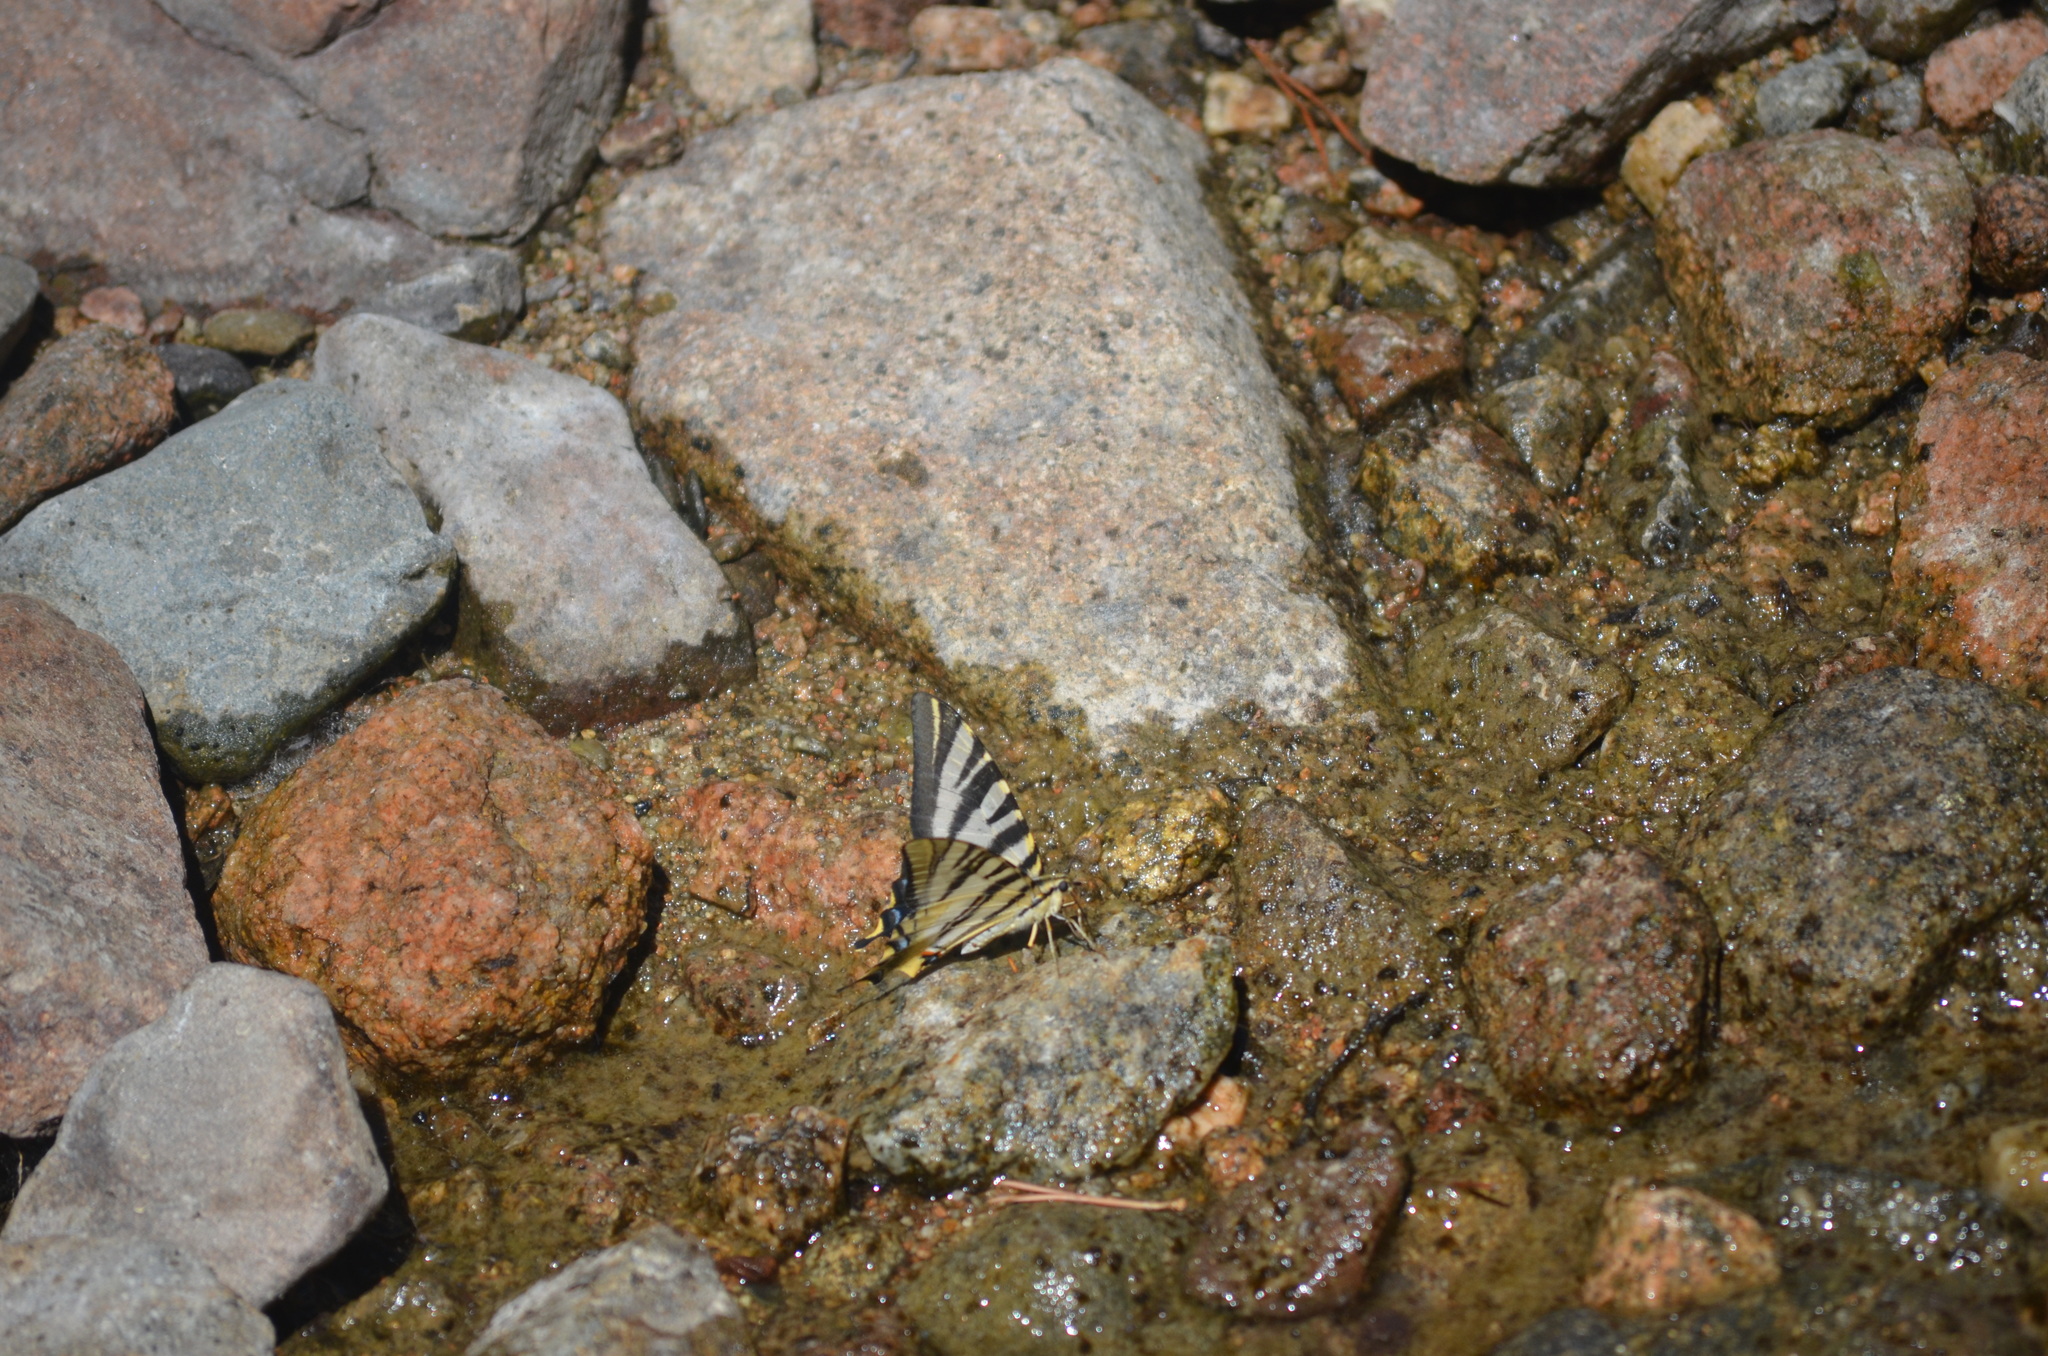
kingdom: Animalia
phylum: Arthropoda
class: Insecta
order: Lepidoptera
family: Papilionidae
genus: Iphiclides
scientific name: Iphiclides feisthamelii
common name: Iberian scarce swallowtail
